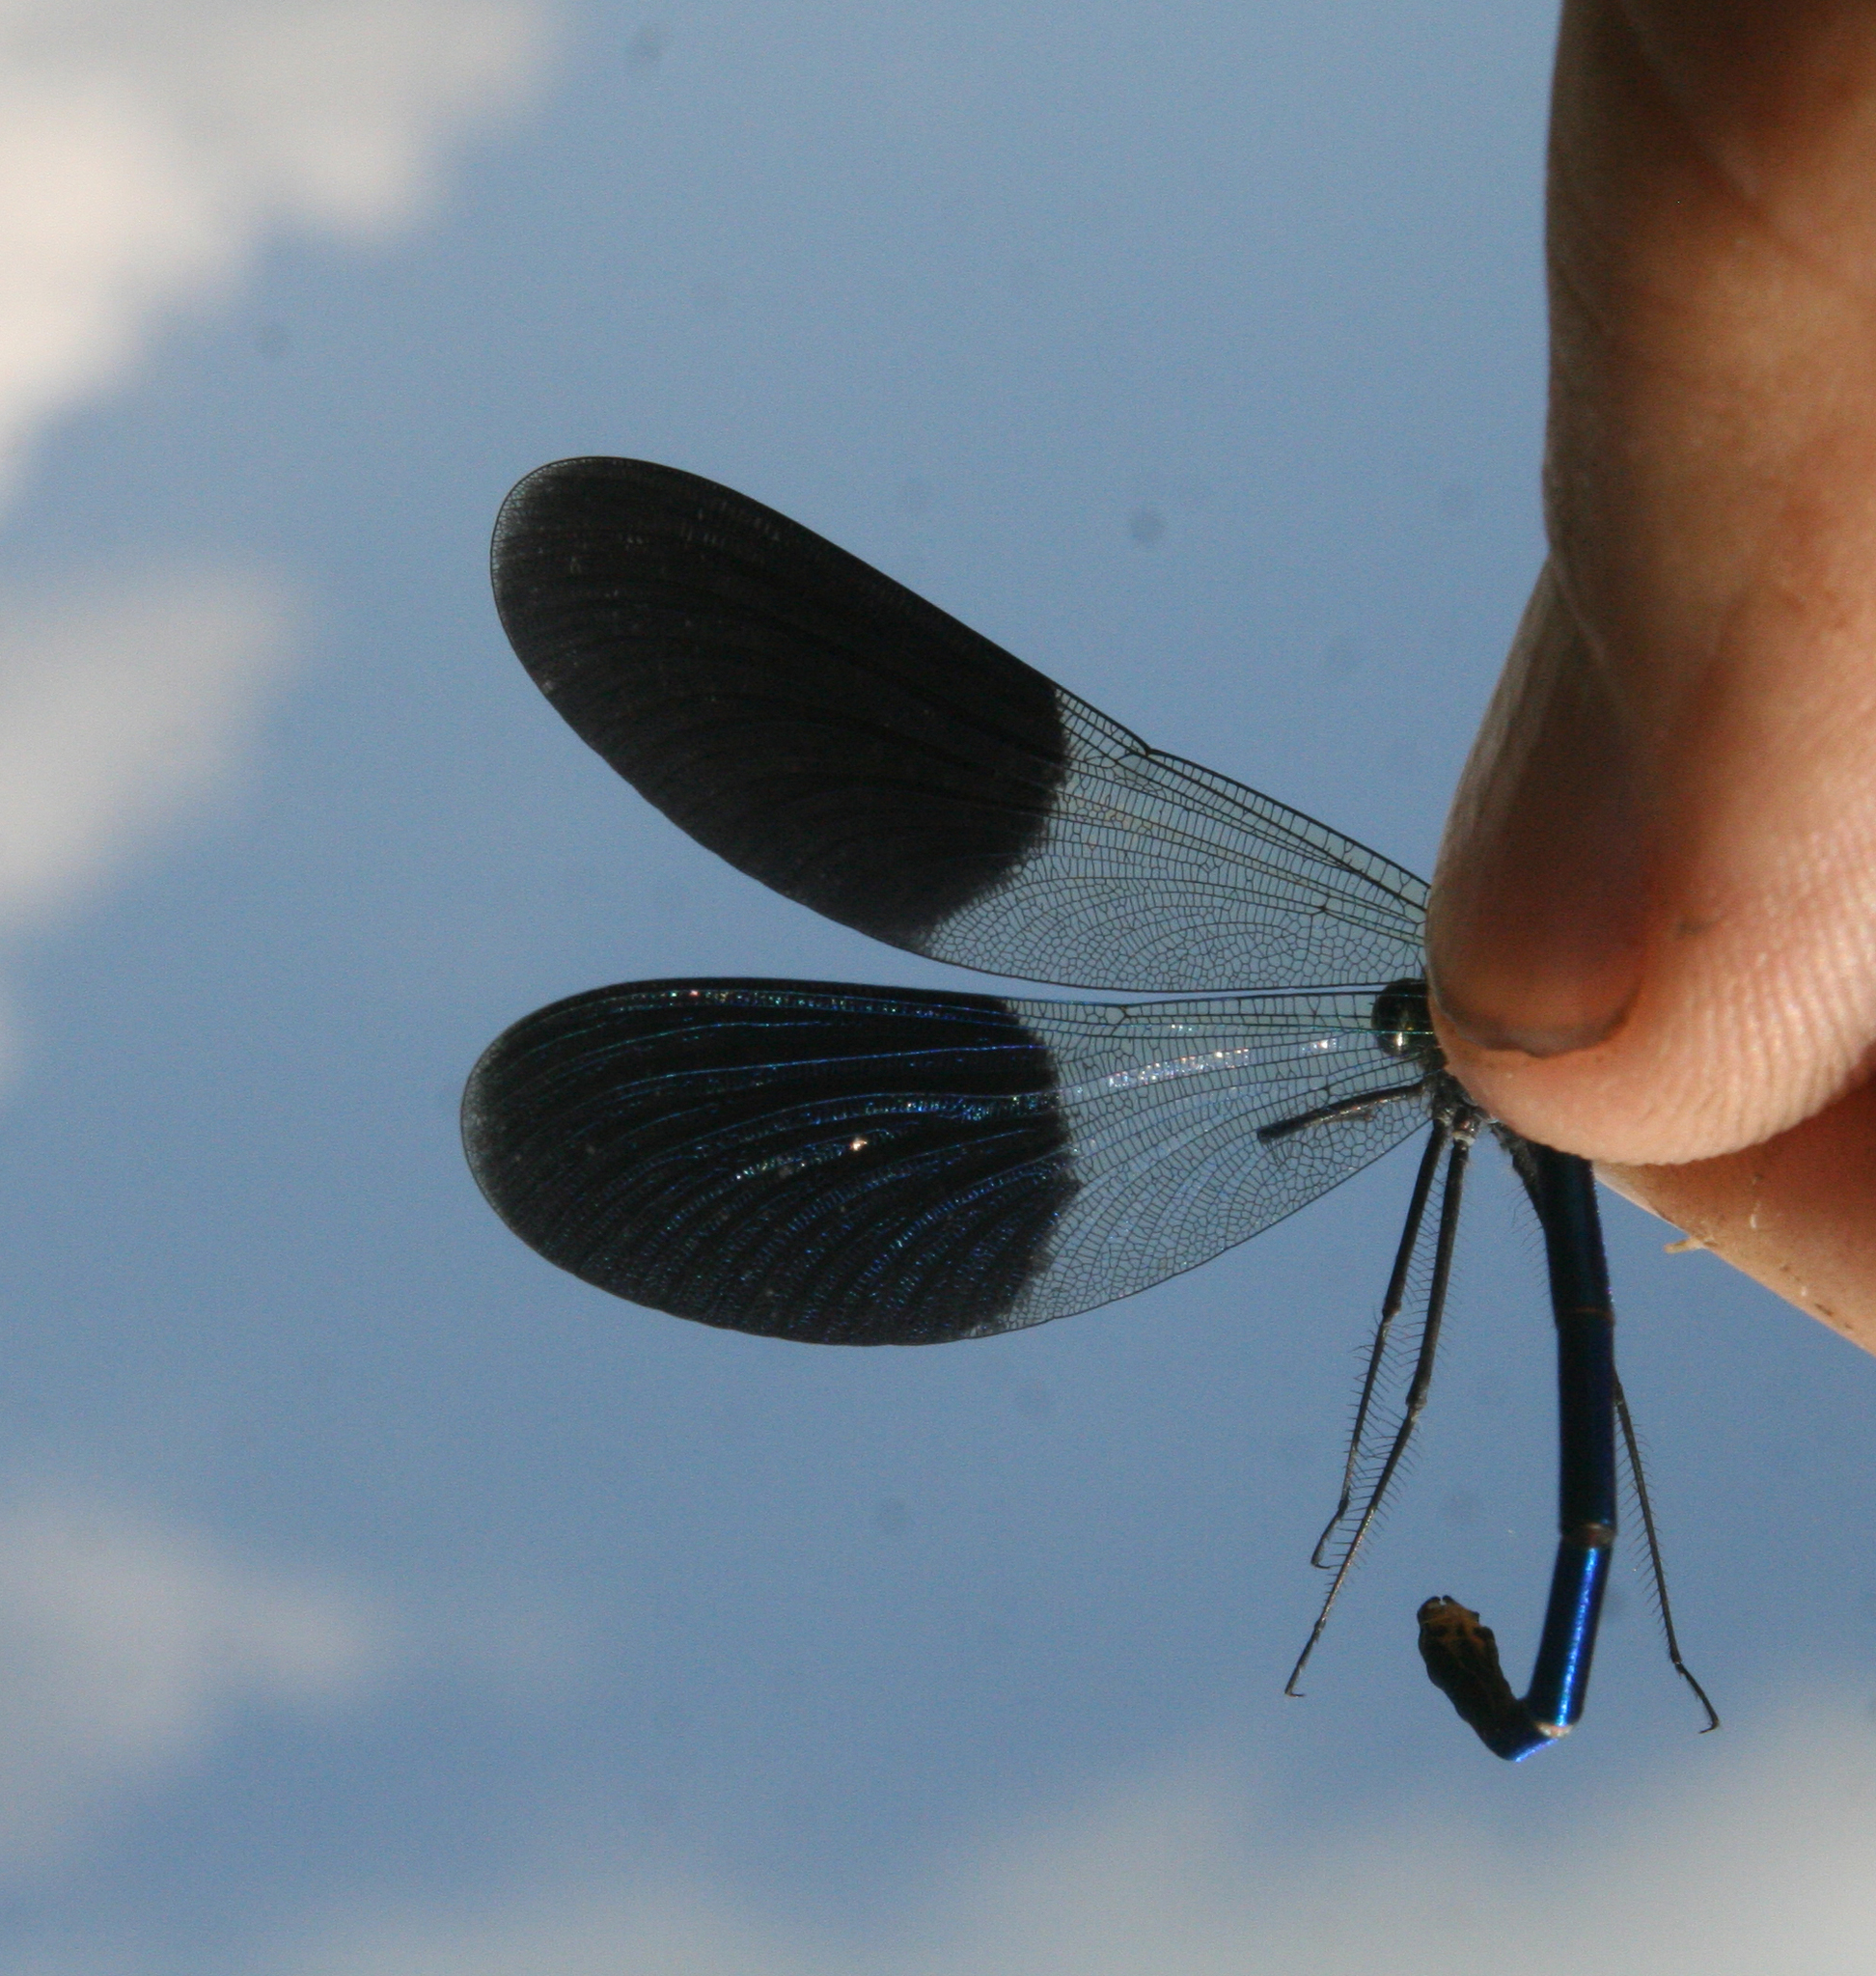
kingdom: Animalia
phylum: Arthropoda
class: Insecta
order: Odonata
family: Calopterygidae
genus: Calopteryx
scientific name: Calopteryx splendens
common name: Banded demoiselle
